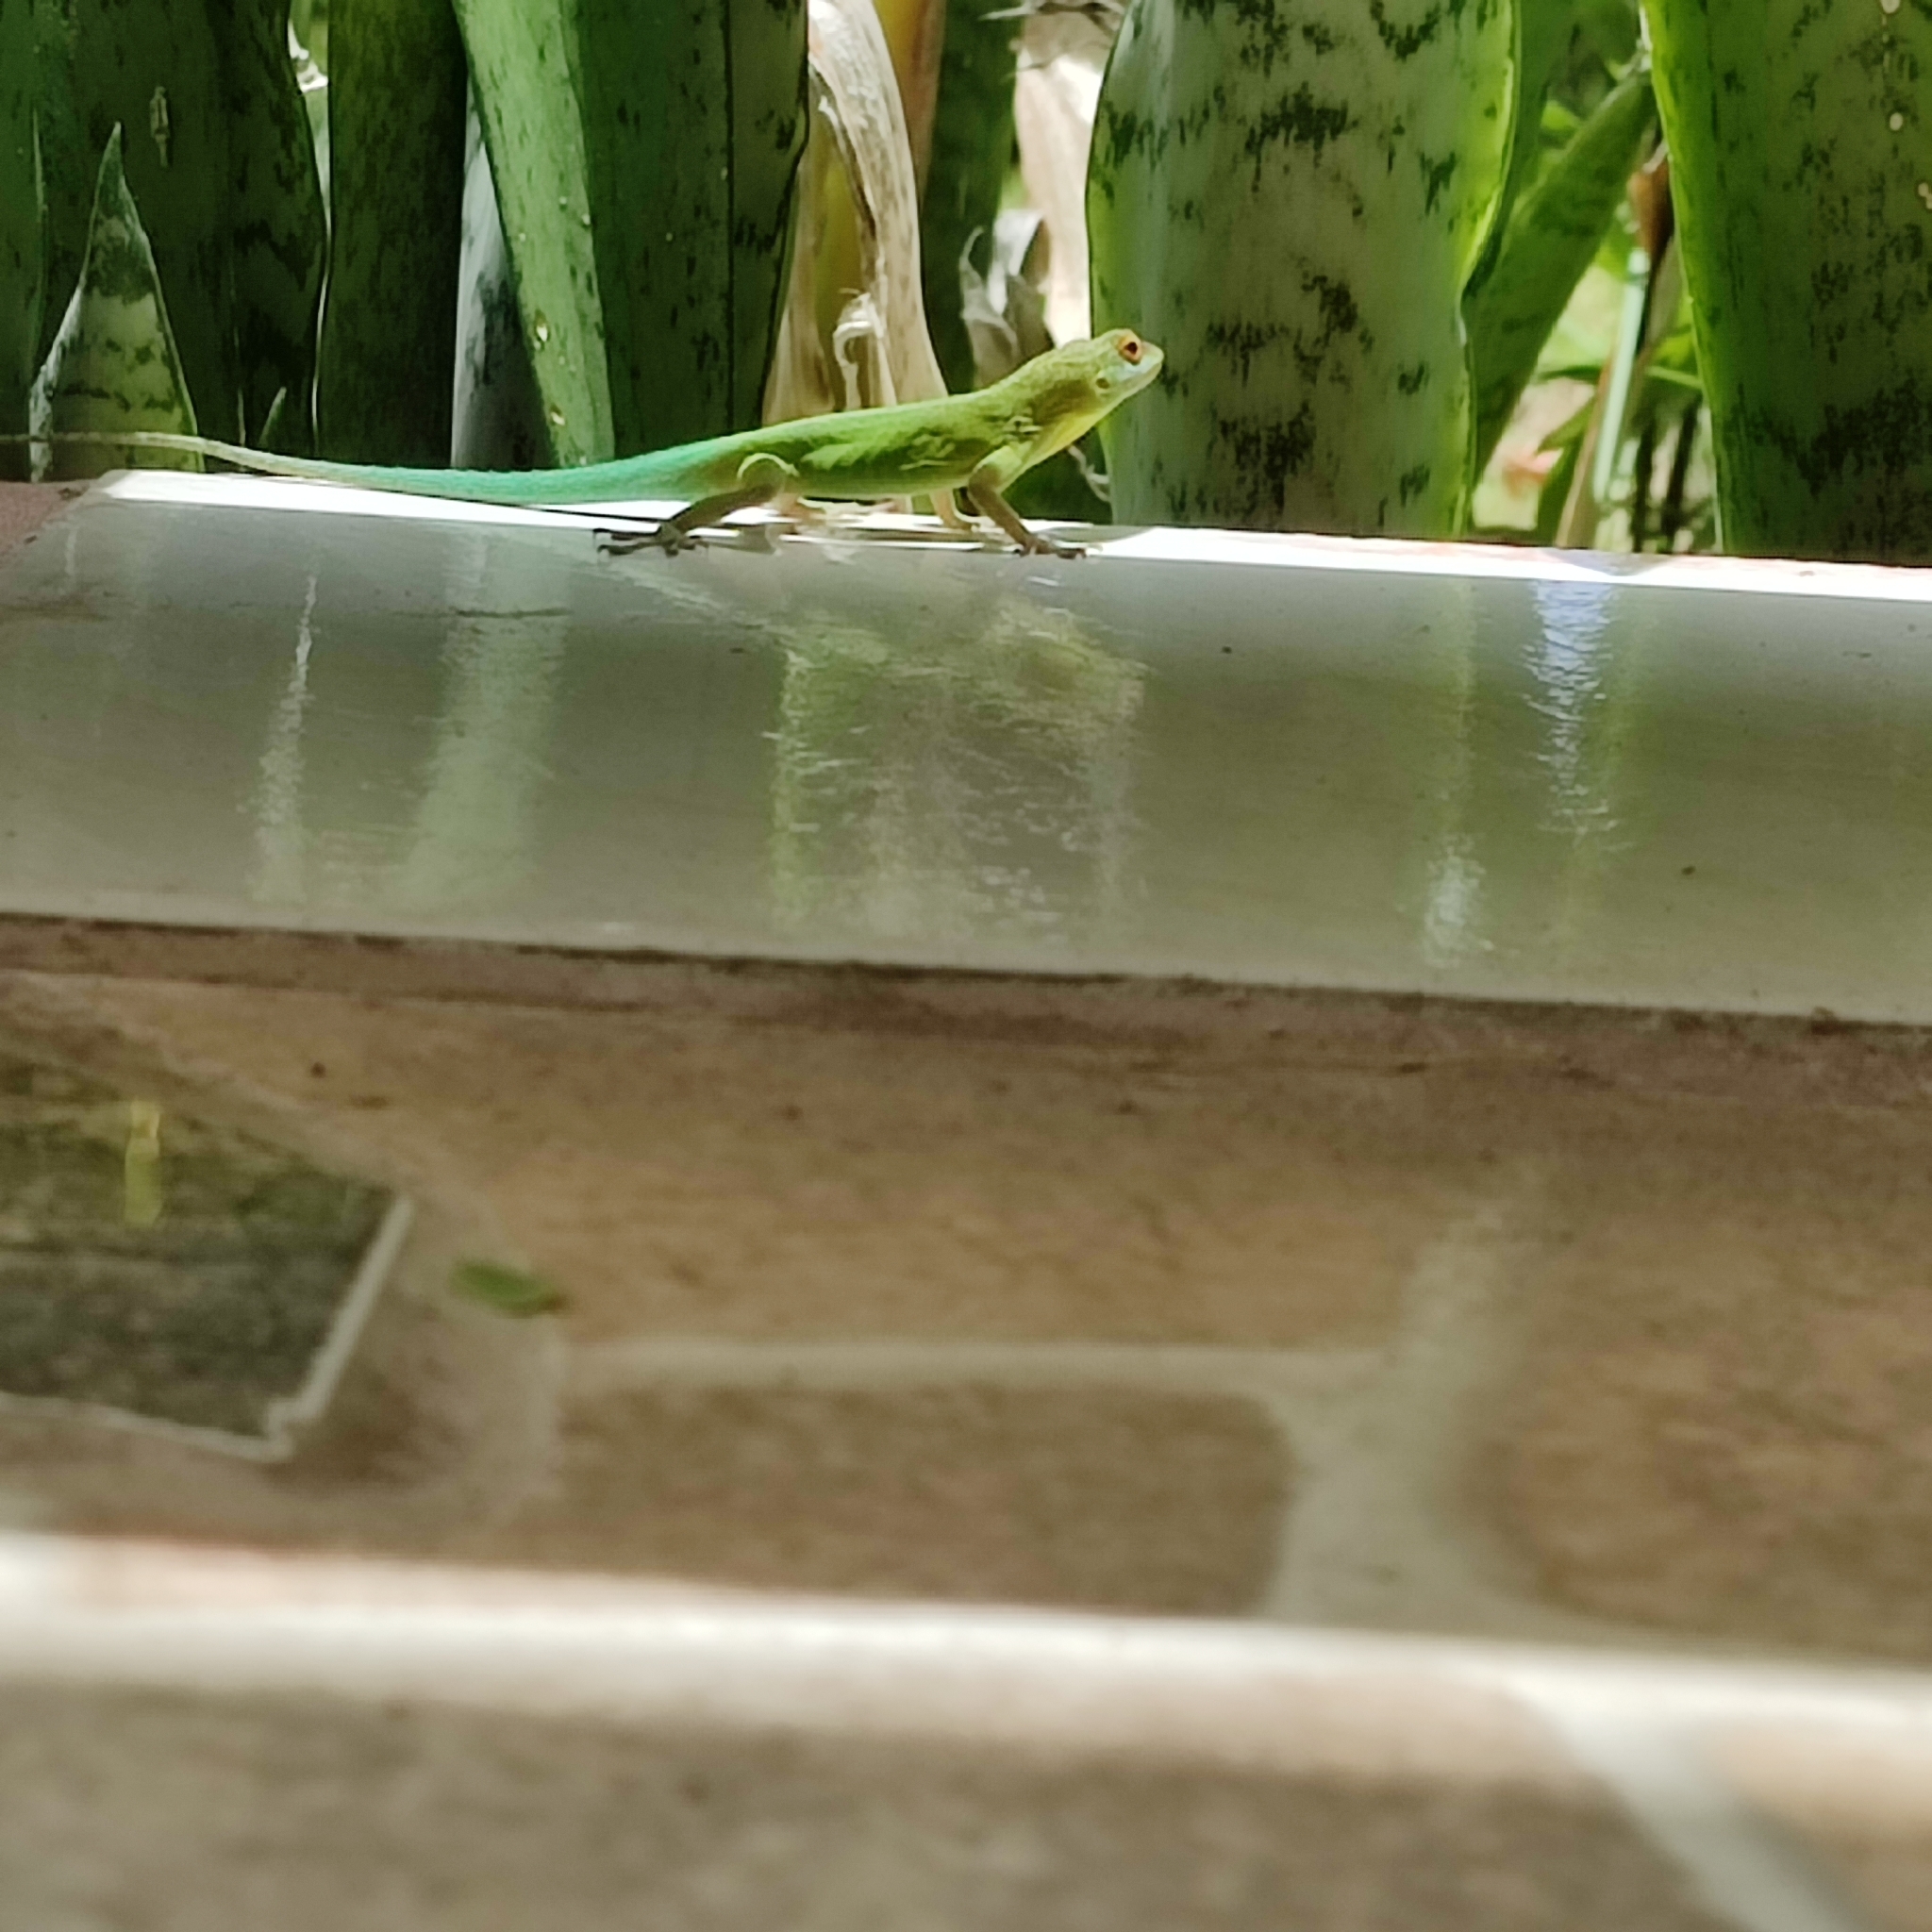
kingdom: Animalia
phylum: Chordata
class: Squamata
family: Dactyloidae
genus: Anolis
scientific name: Anolis lividus
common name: Montserrat anole
